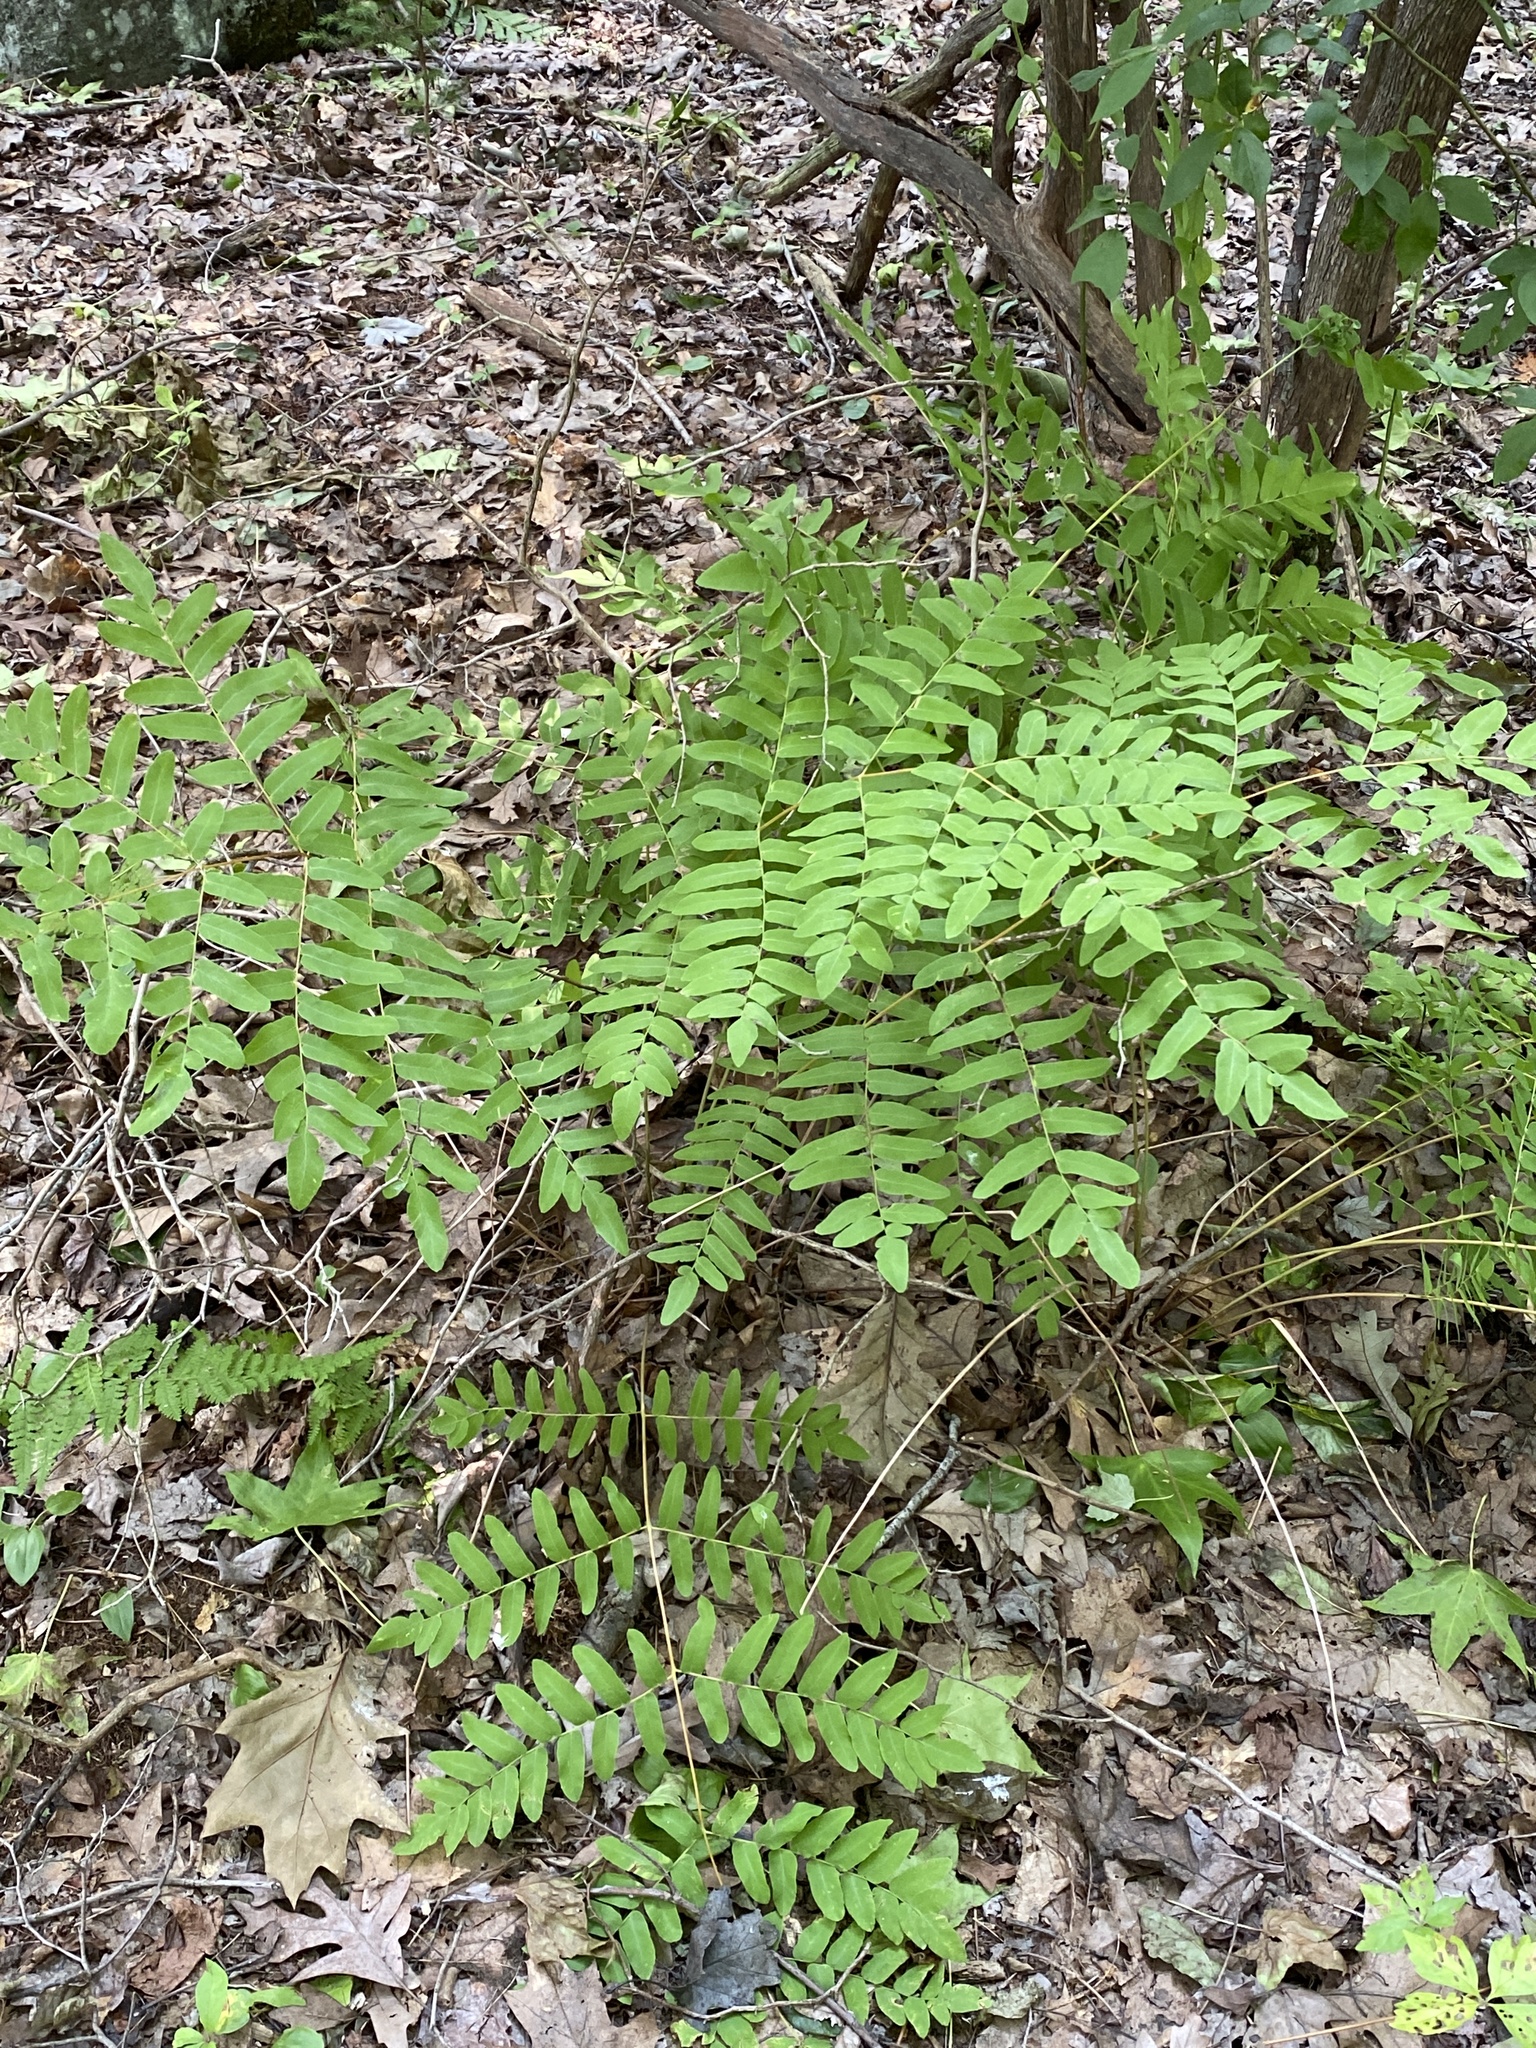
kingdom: Plantae
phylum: Tracheophyta
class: Polypodiopsida
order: Osmundales
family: Osmundaceae
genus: Osmunda
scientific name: Osmunda spectabilis
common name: American royal fern
